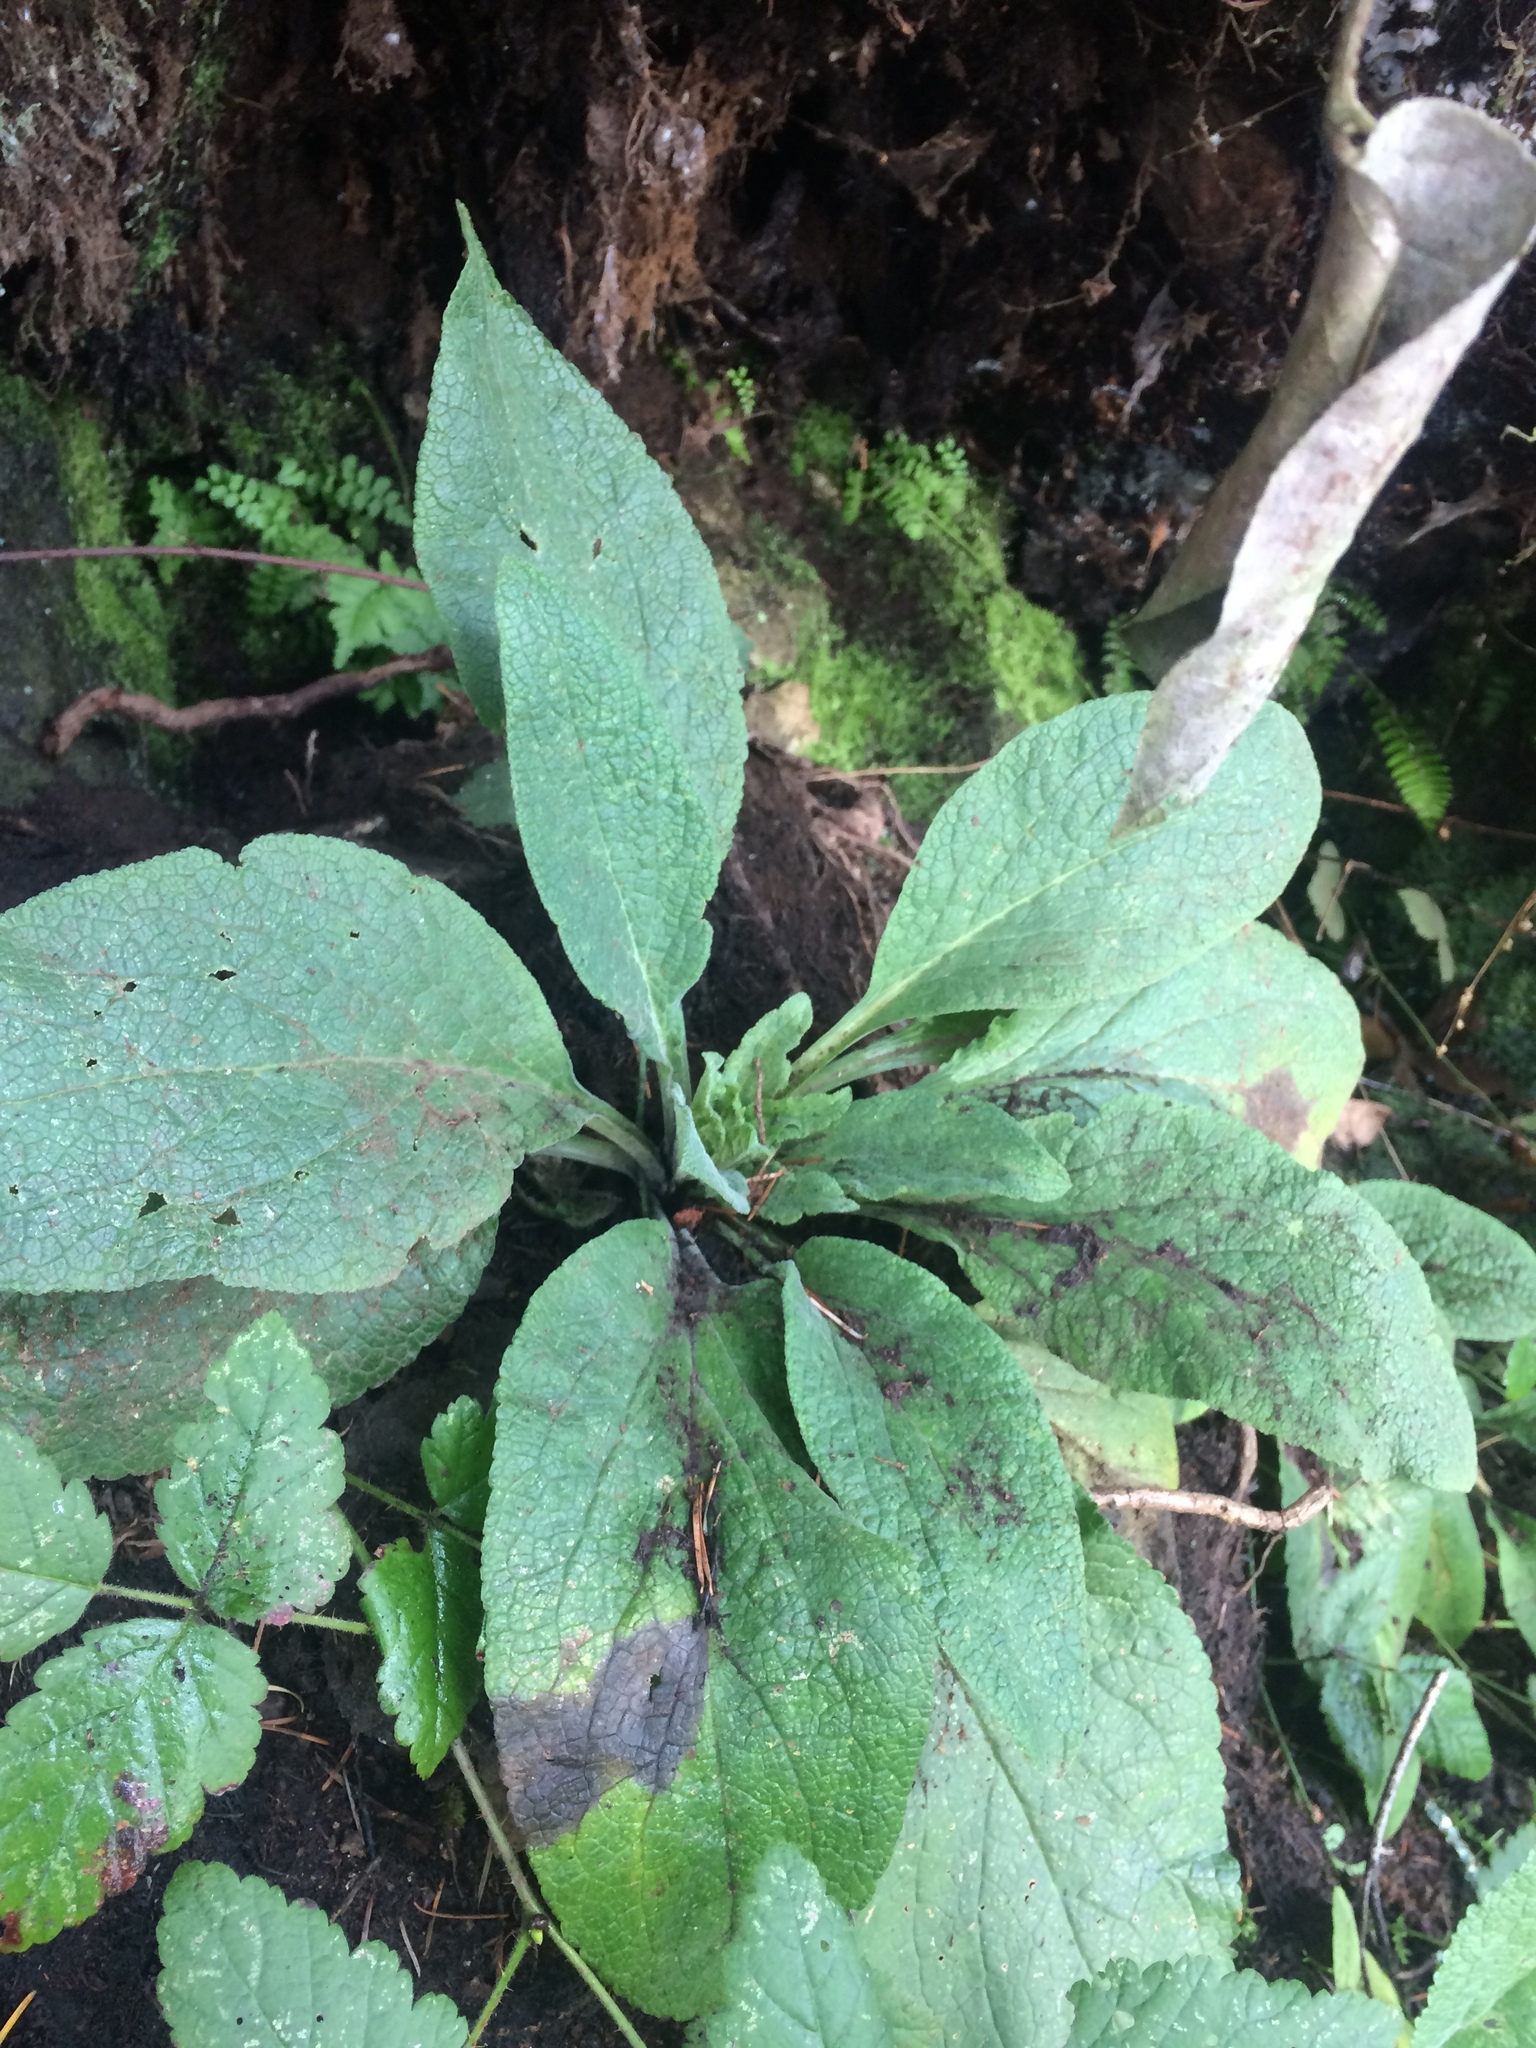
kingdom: Plantae
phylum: Tracheophyta
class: Magnoliopsida
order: Lamiales
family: Plantaginaceae
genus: Digitalis
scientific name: Digitalis purpurea
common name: Foxglove
